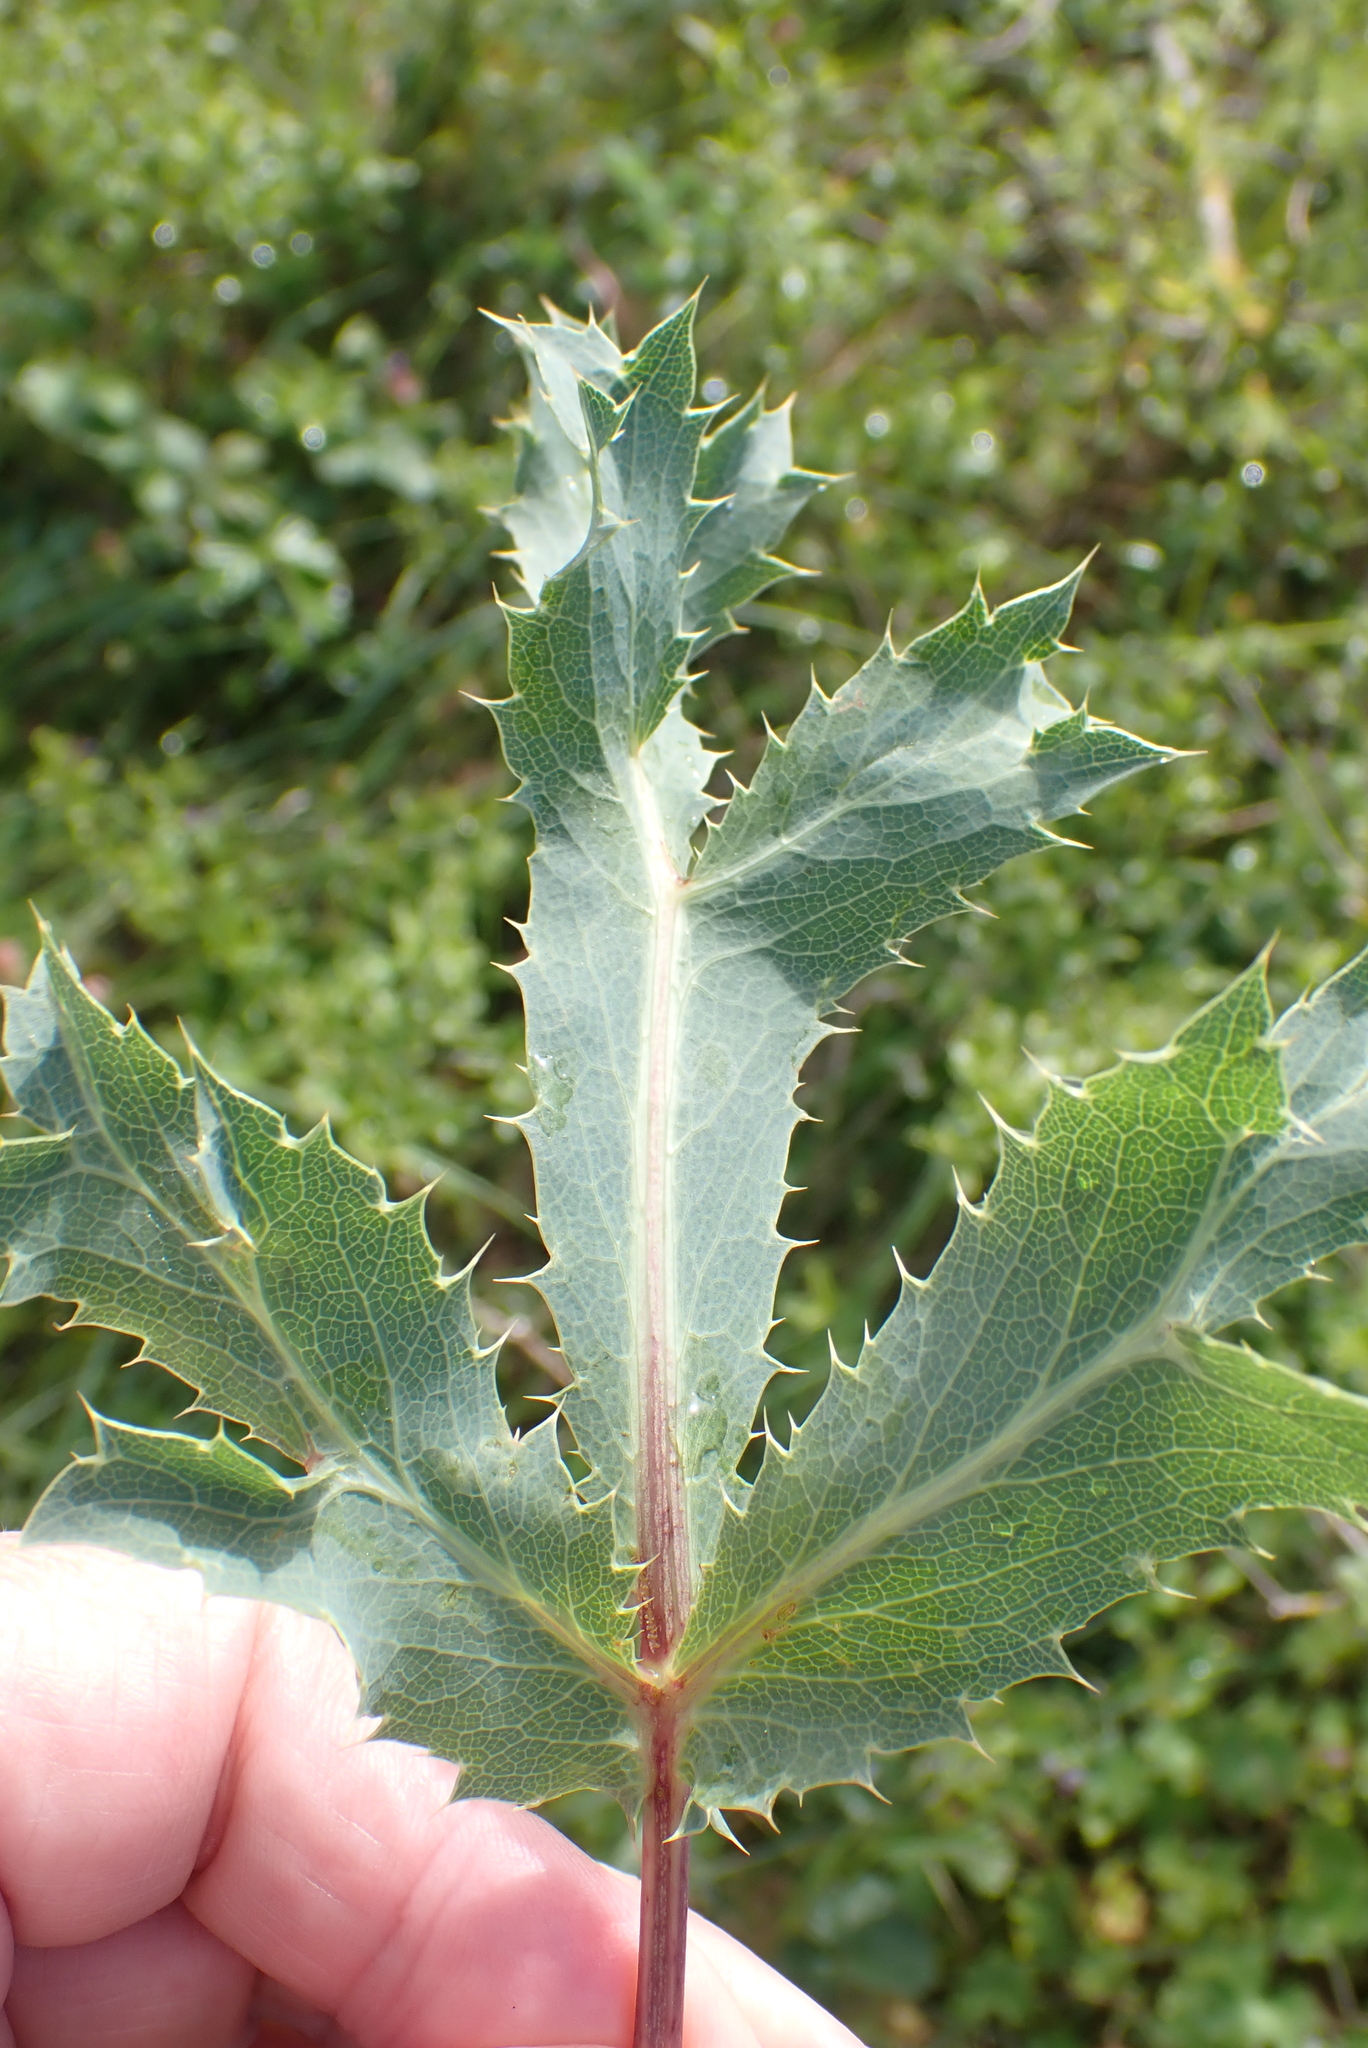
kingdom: Plantae
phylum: Tracheophyta
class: Magnoliopsida
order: Apiales
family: Apiaceae
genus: Eryngium
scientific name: Eryngium campestre
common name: Field eryngo
